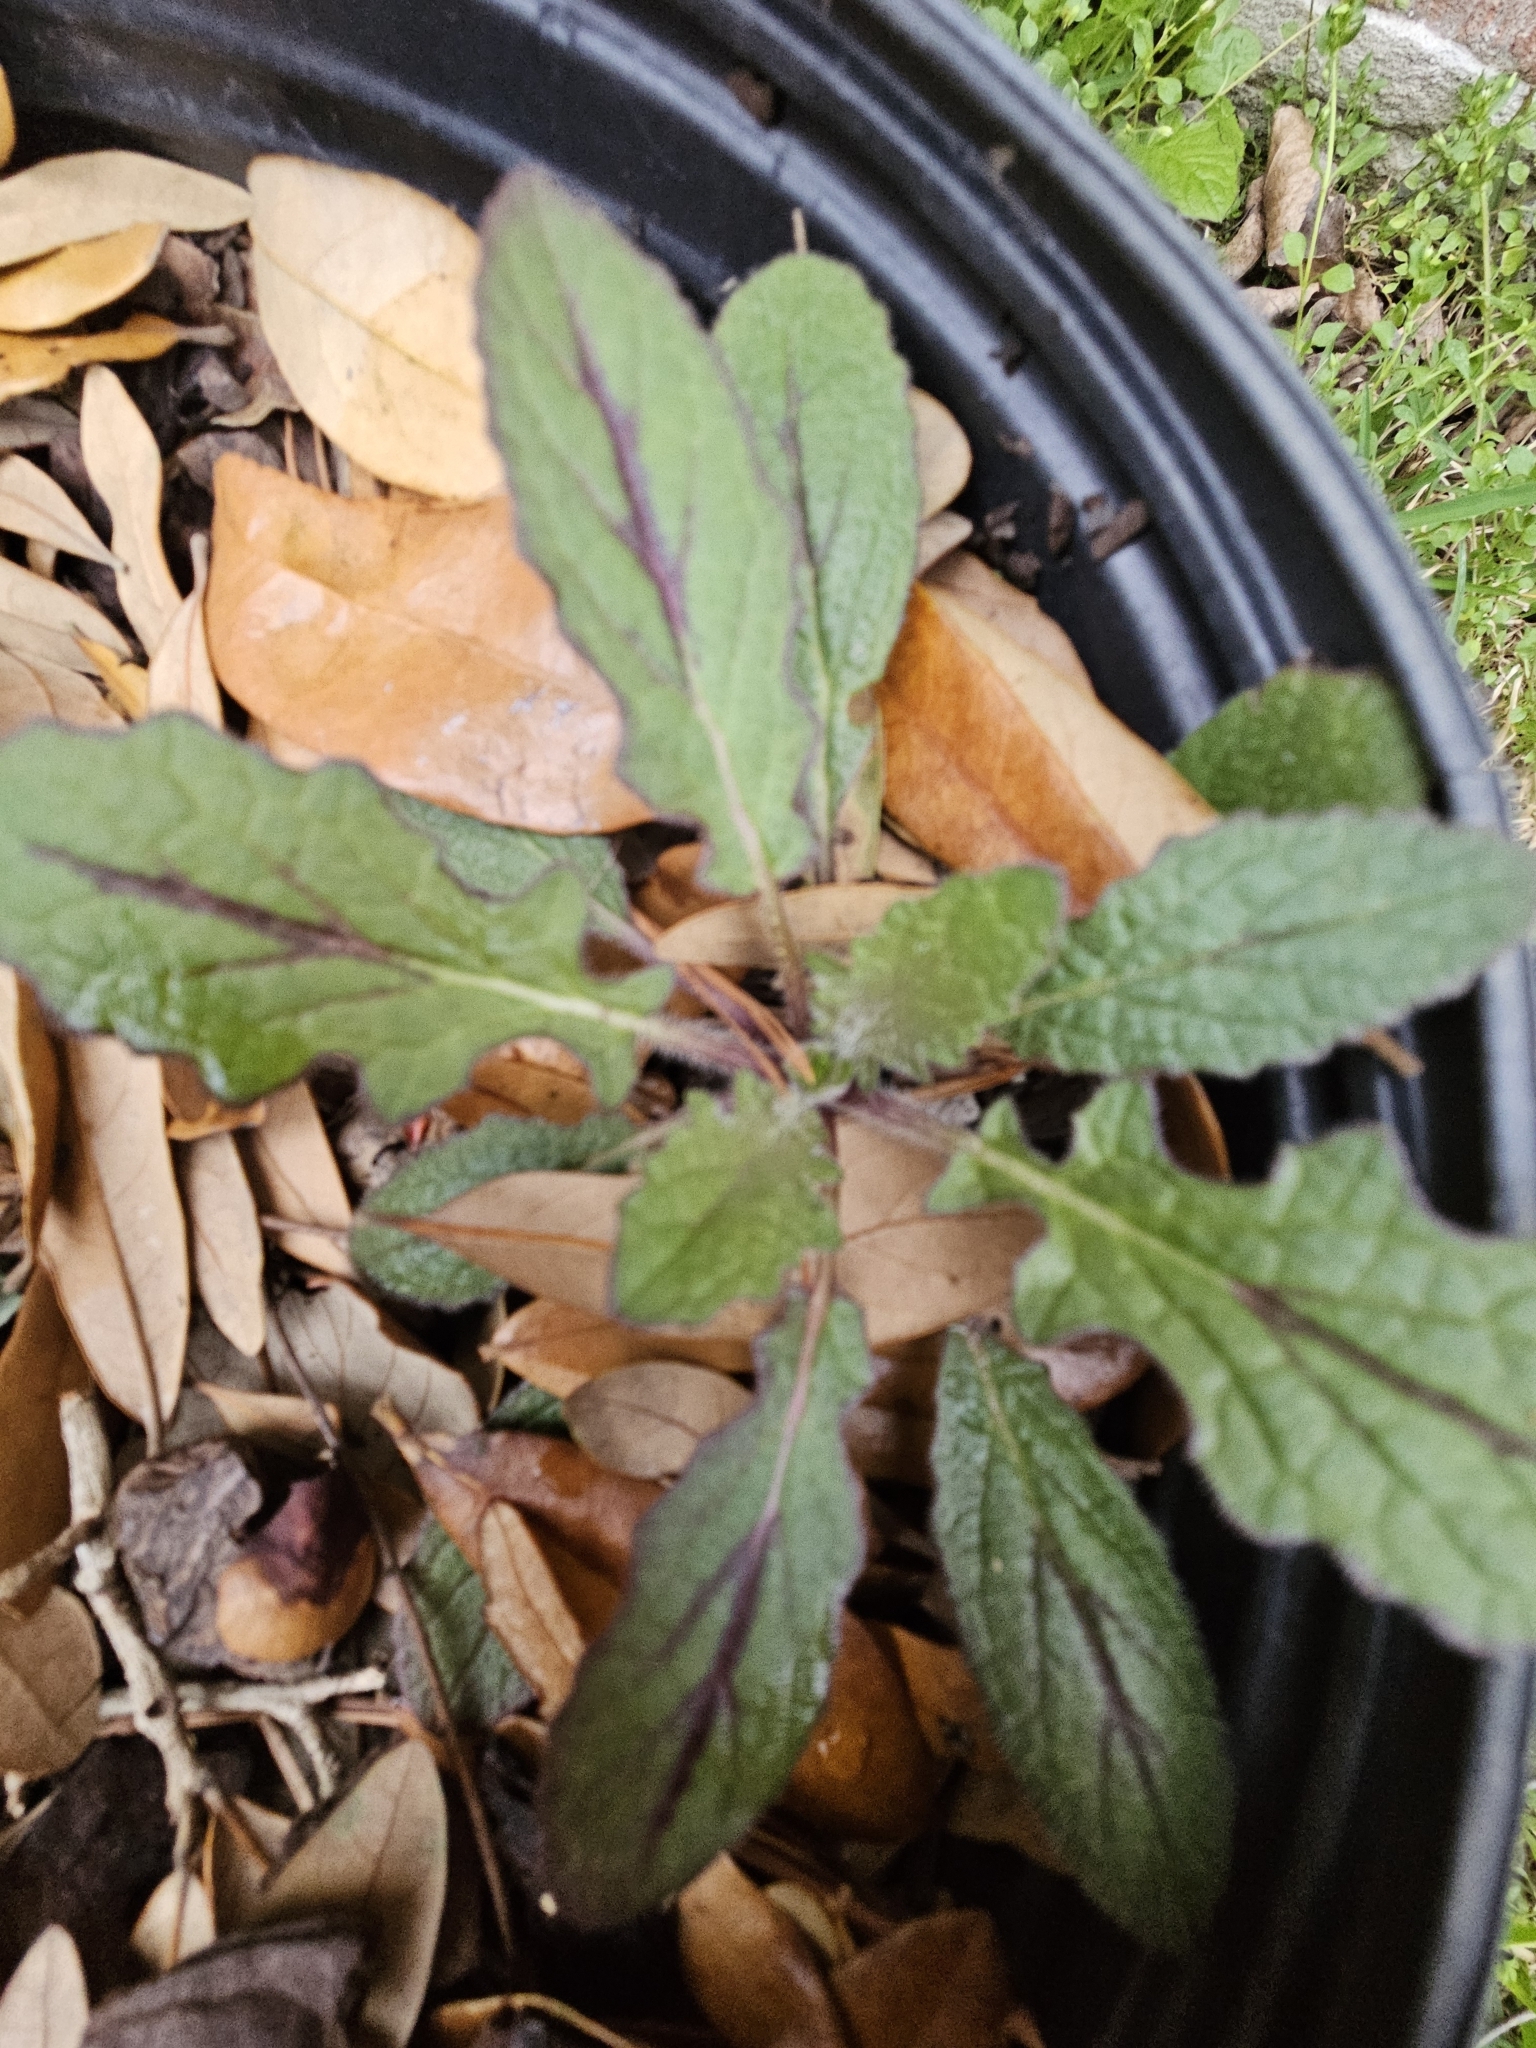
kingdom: Plantae
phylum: Tracheophyta
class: Magnoliopsida
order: Lamiales
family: Lamiaceae
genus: Salvia
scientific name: Salvia lyrata
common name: Cancerweed
